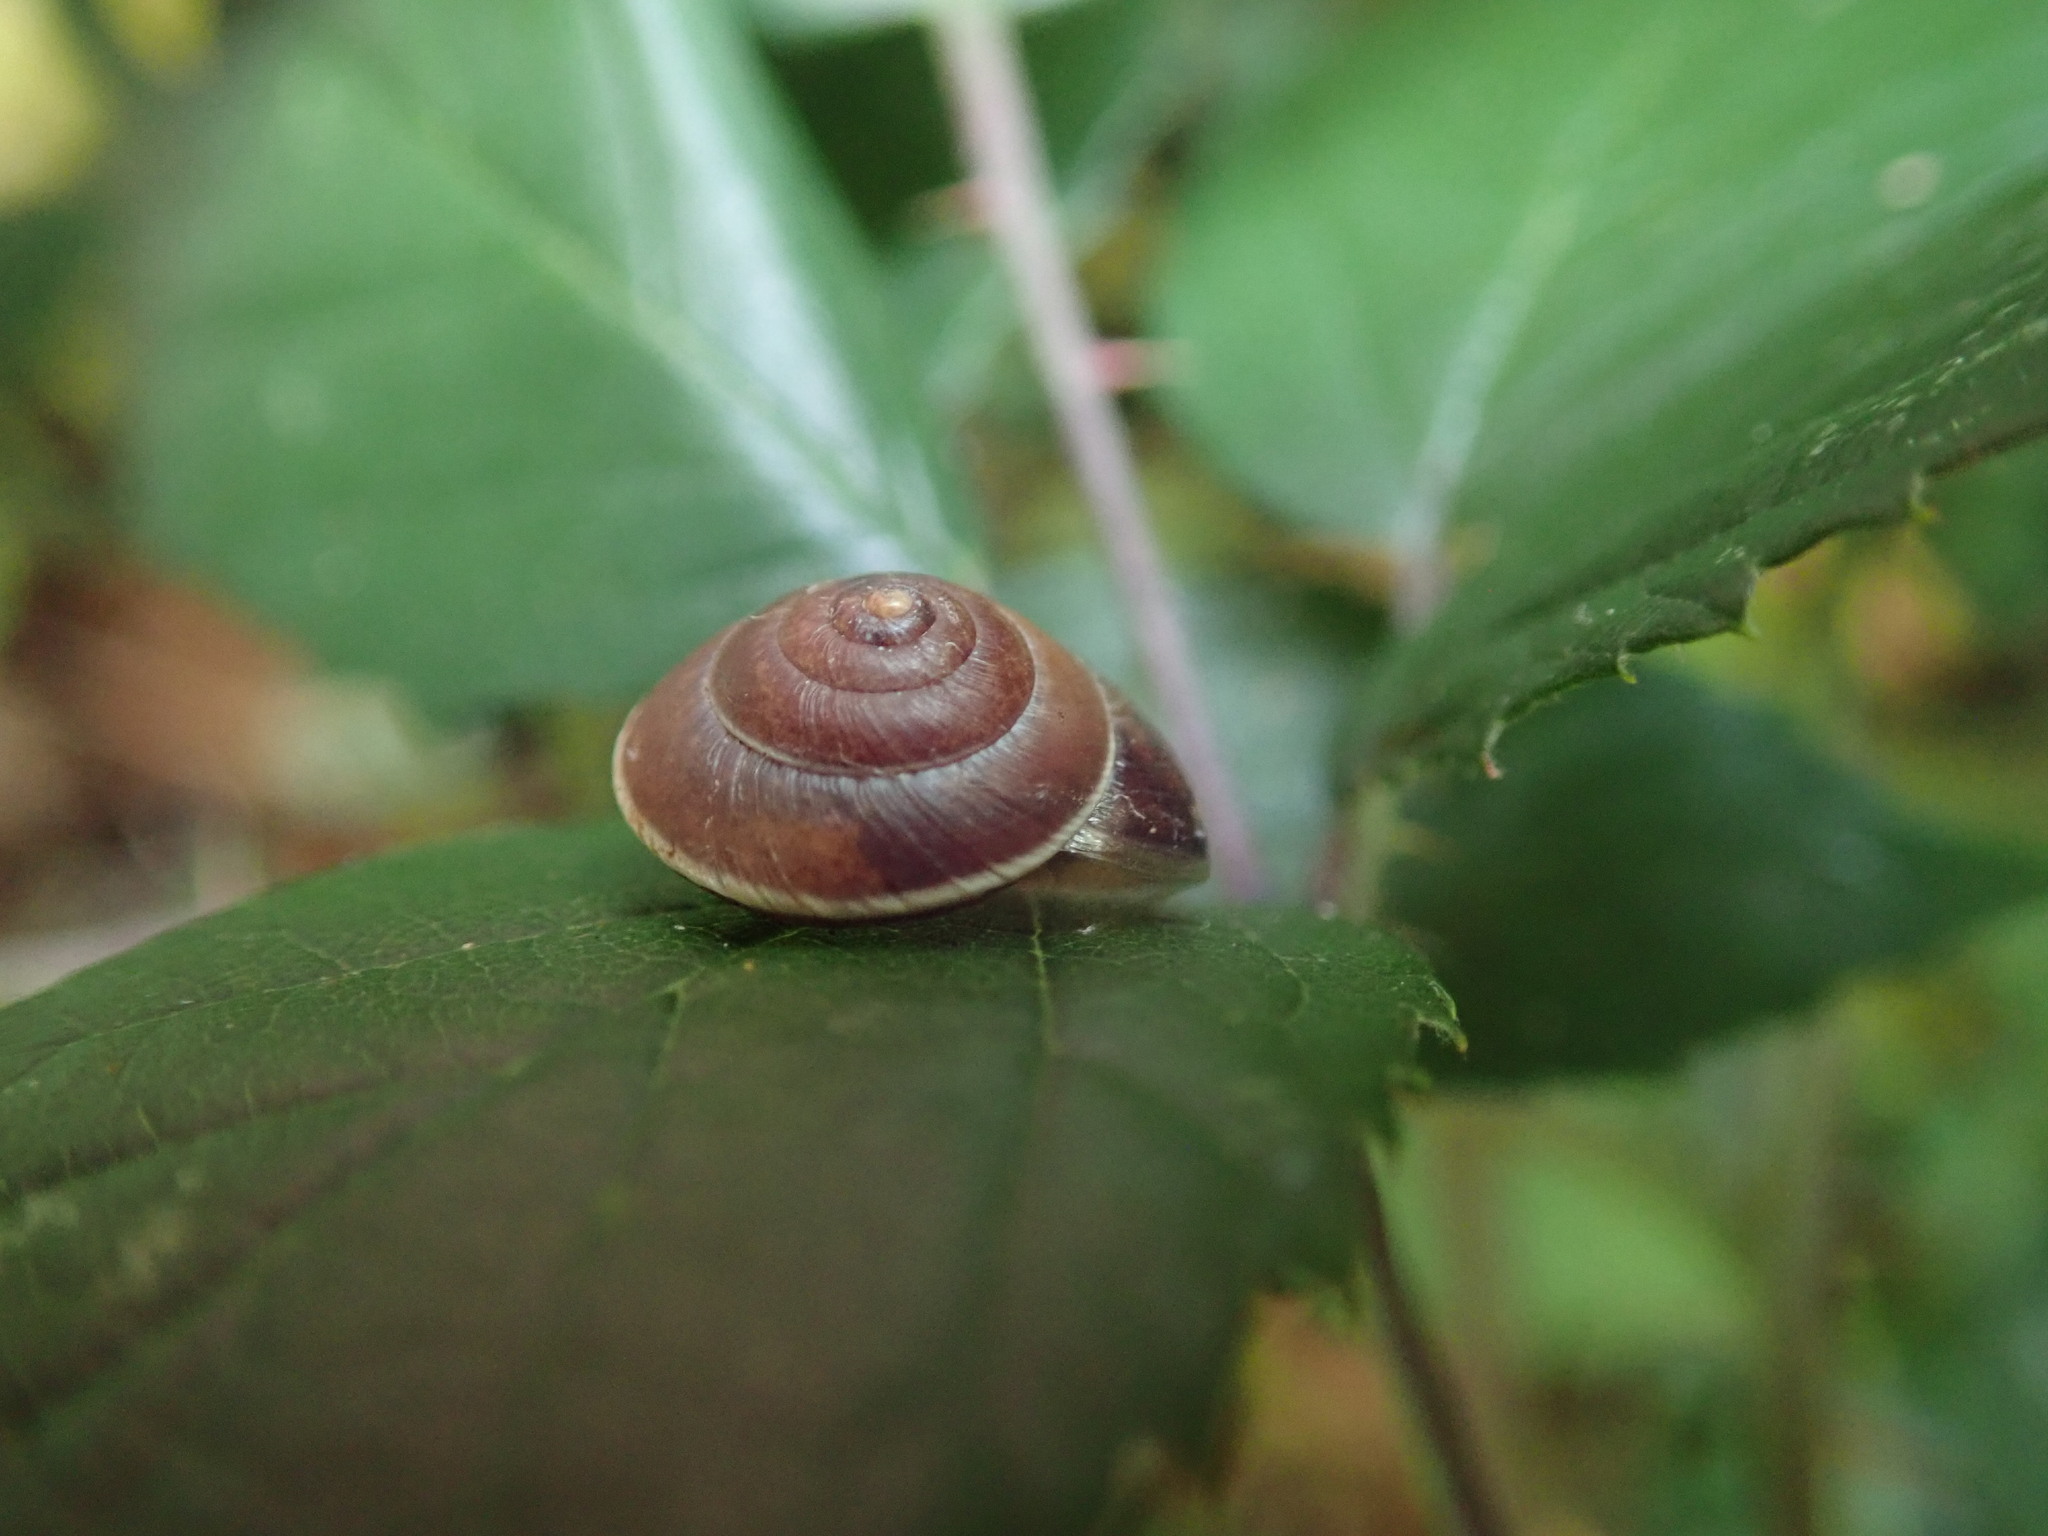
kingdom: Animalia
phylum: Mollusca
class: Gastropoda
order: Stylommatophora
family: Hygromiidae
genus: Hygromia
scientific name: Hygromia cinctella
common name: Girdled snail
